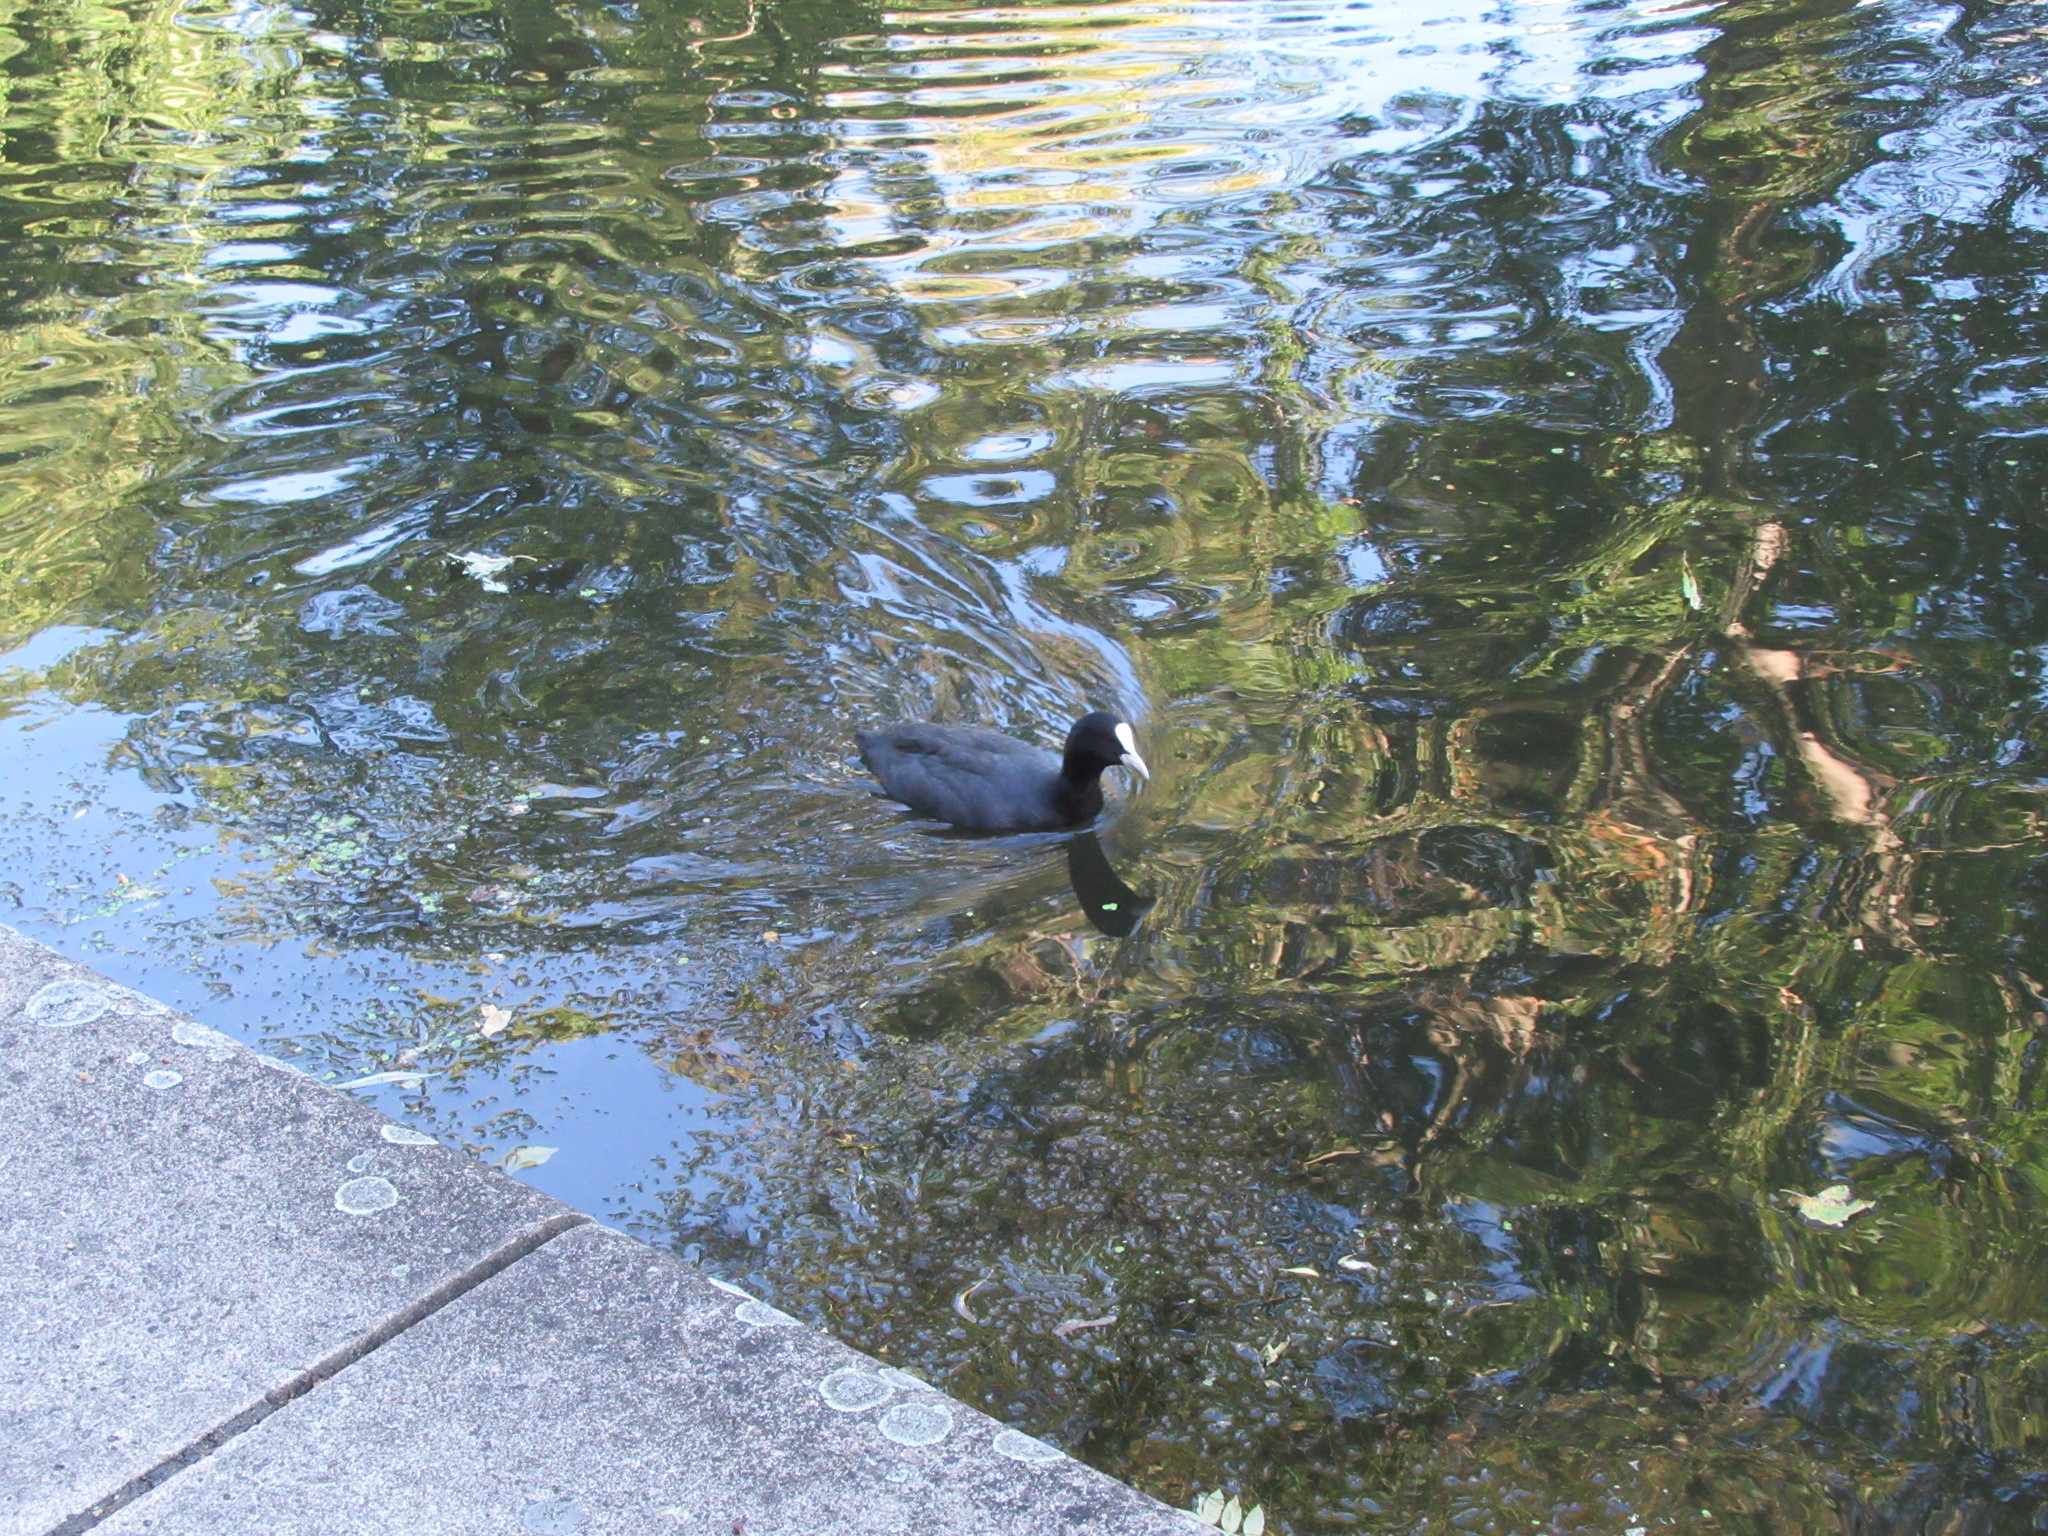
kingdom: Animalia
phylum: Chordata
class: Aves
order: Gruiformes
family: Rallidae
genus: Fulica
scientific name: Fulica atra
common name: Eurasian coot
